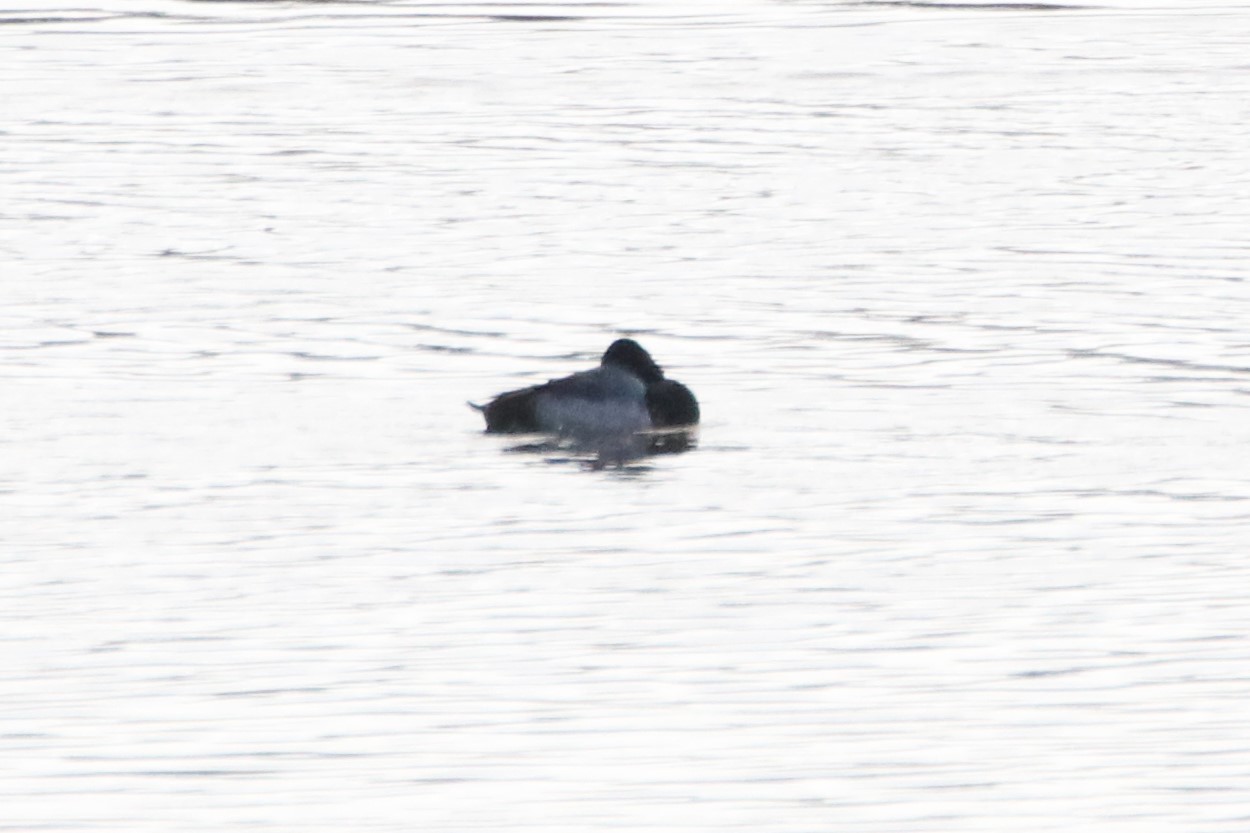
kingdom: Animalia
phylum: Chordata
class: Aves
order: Anseriformes
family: Anatidae
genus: Aythya
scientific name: Aythya affinis
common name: Lesser scaup
